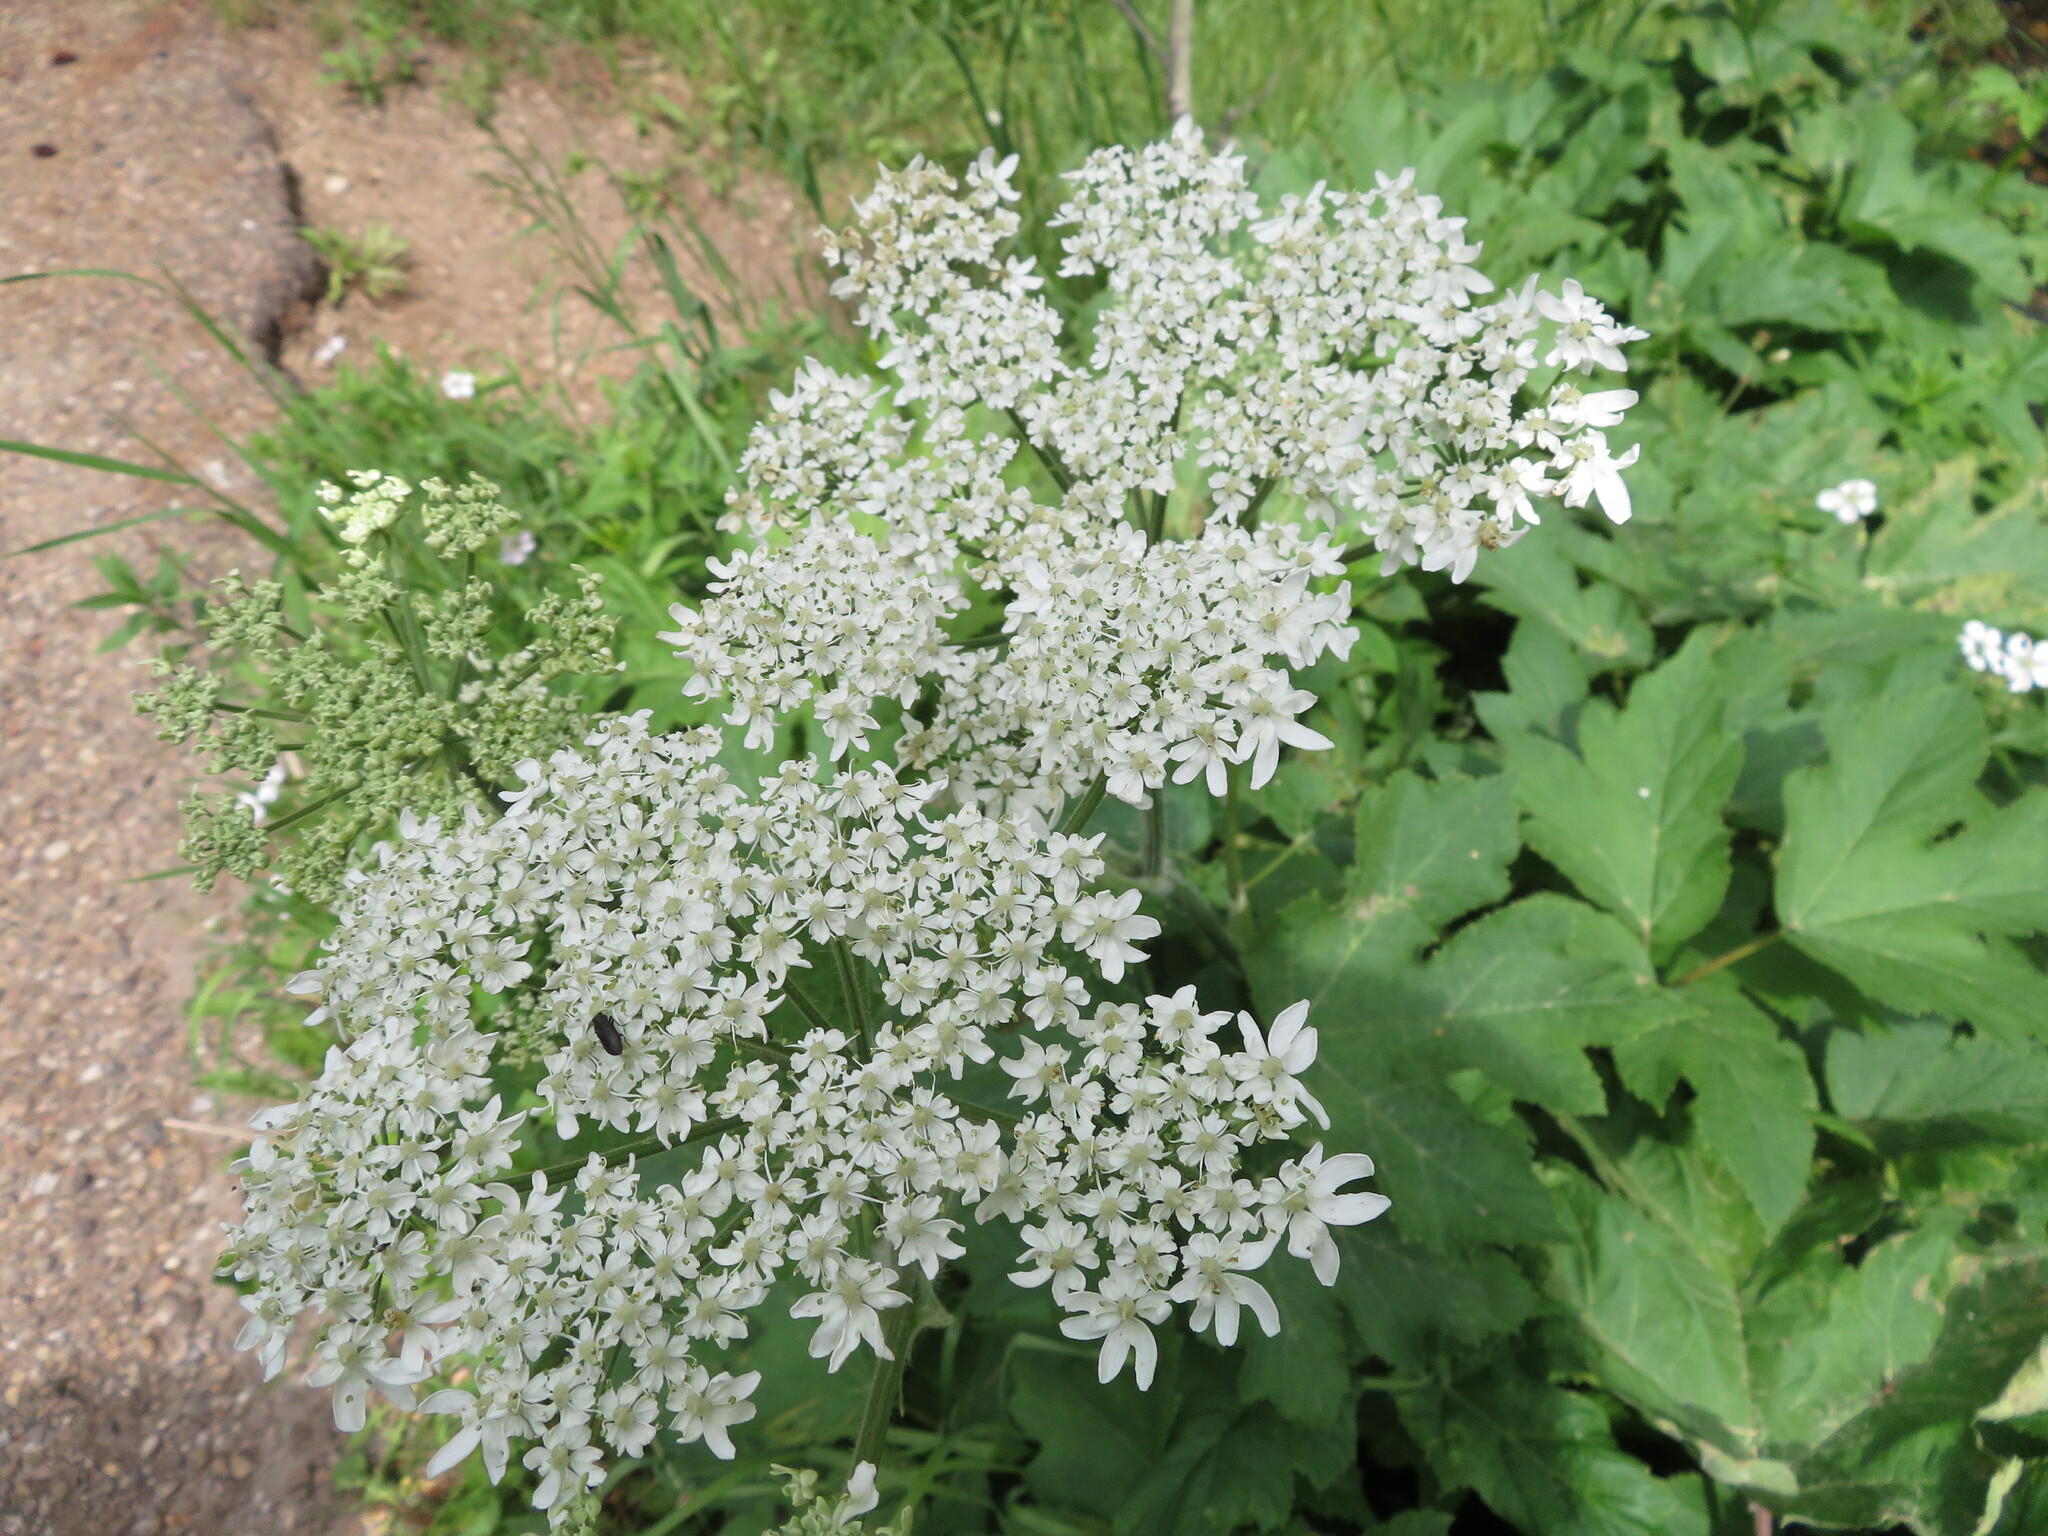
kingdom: Plantae
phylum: Tracheophyta
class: Magnoliopsida
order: Apiales
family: Apiaceae
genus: Heracleum
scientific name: Heracleum maximum
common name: American cow parsnip
